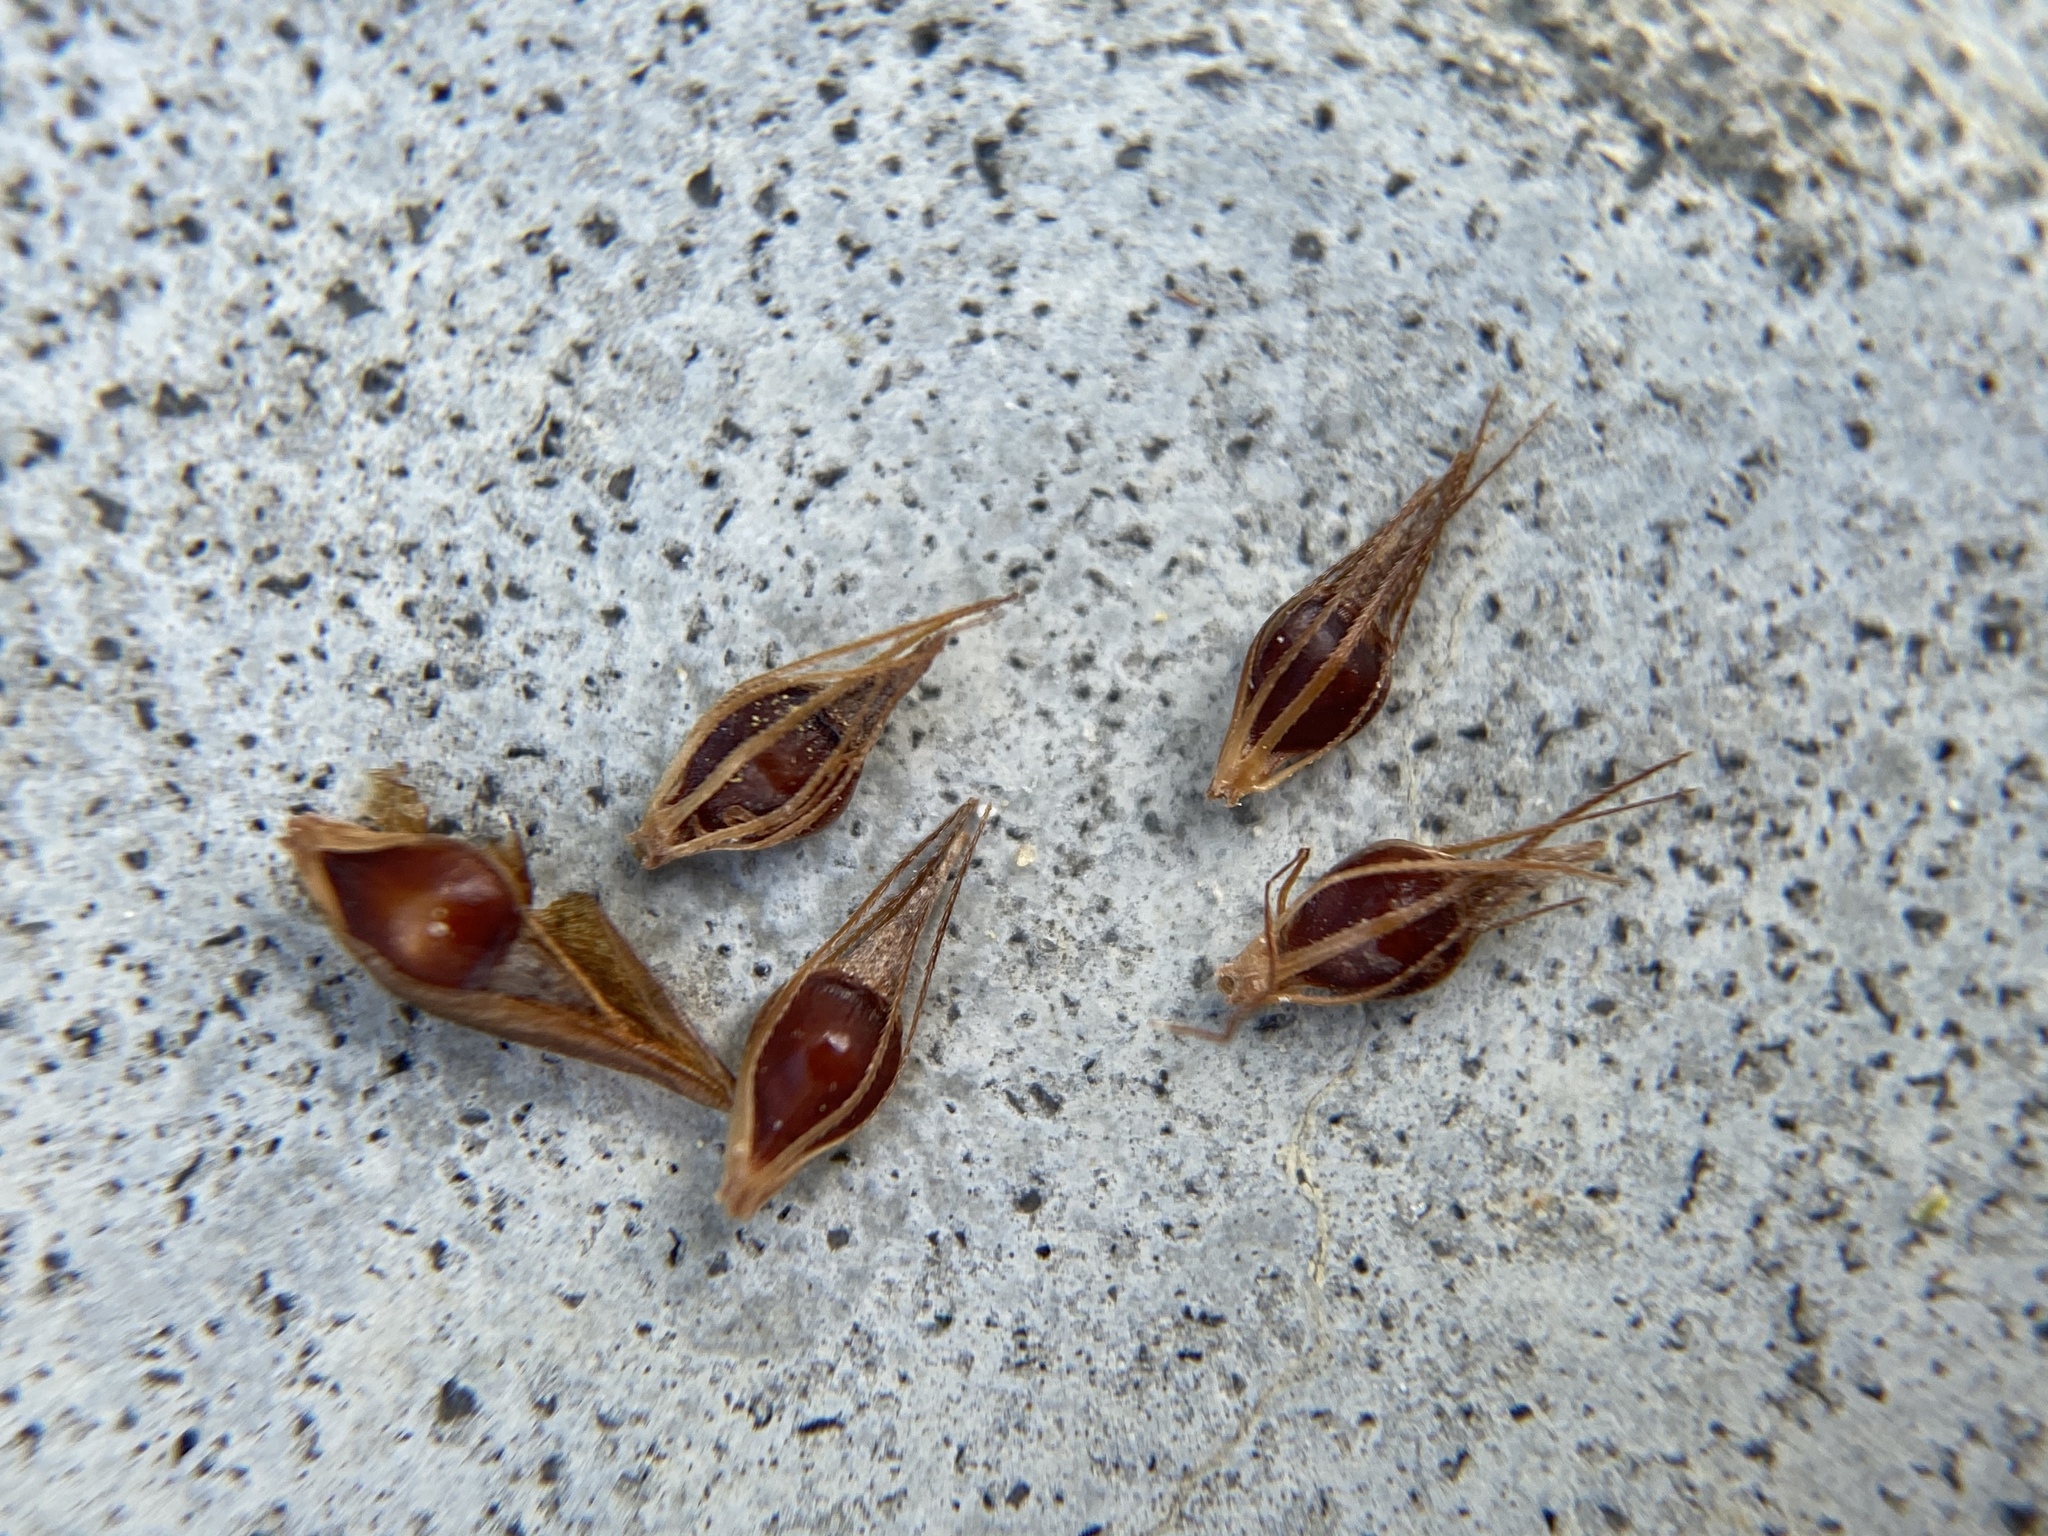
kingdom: Plantae
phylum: Tracheophyta
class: Liliopsida
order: Poales
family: Cyperaceae
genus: Rhynchospora
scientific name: Rhynchospora microcephala
